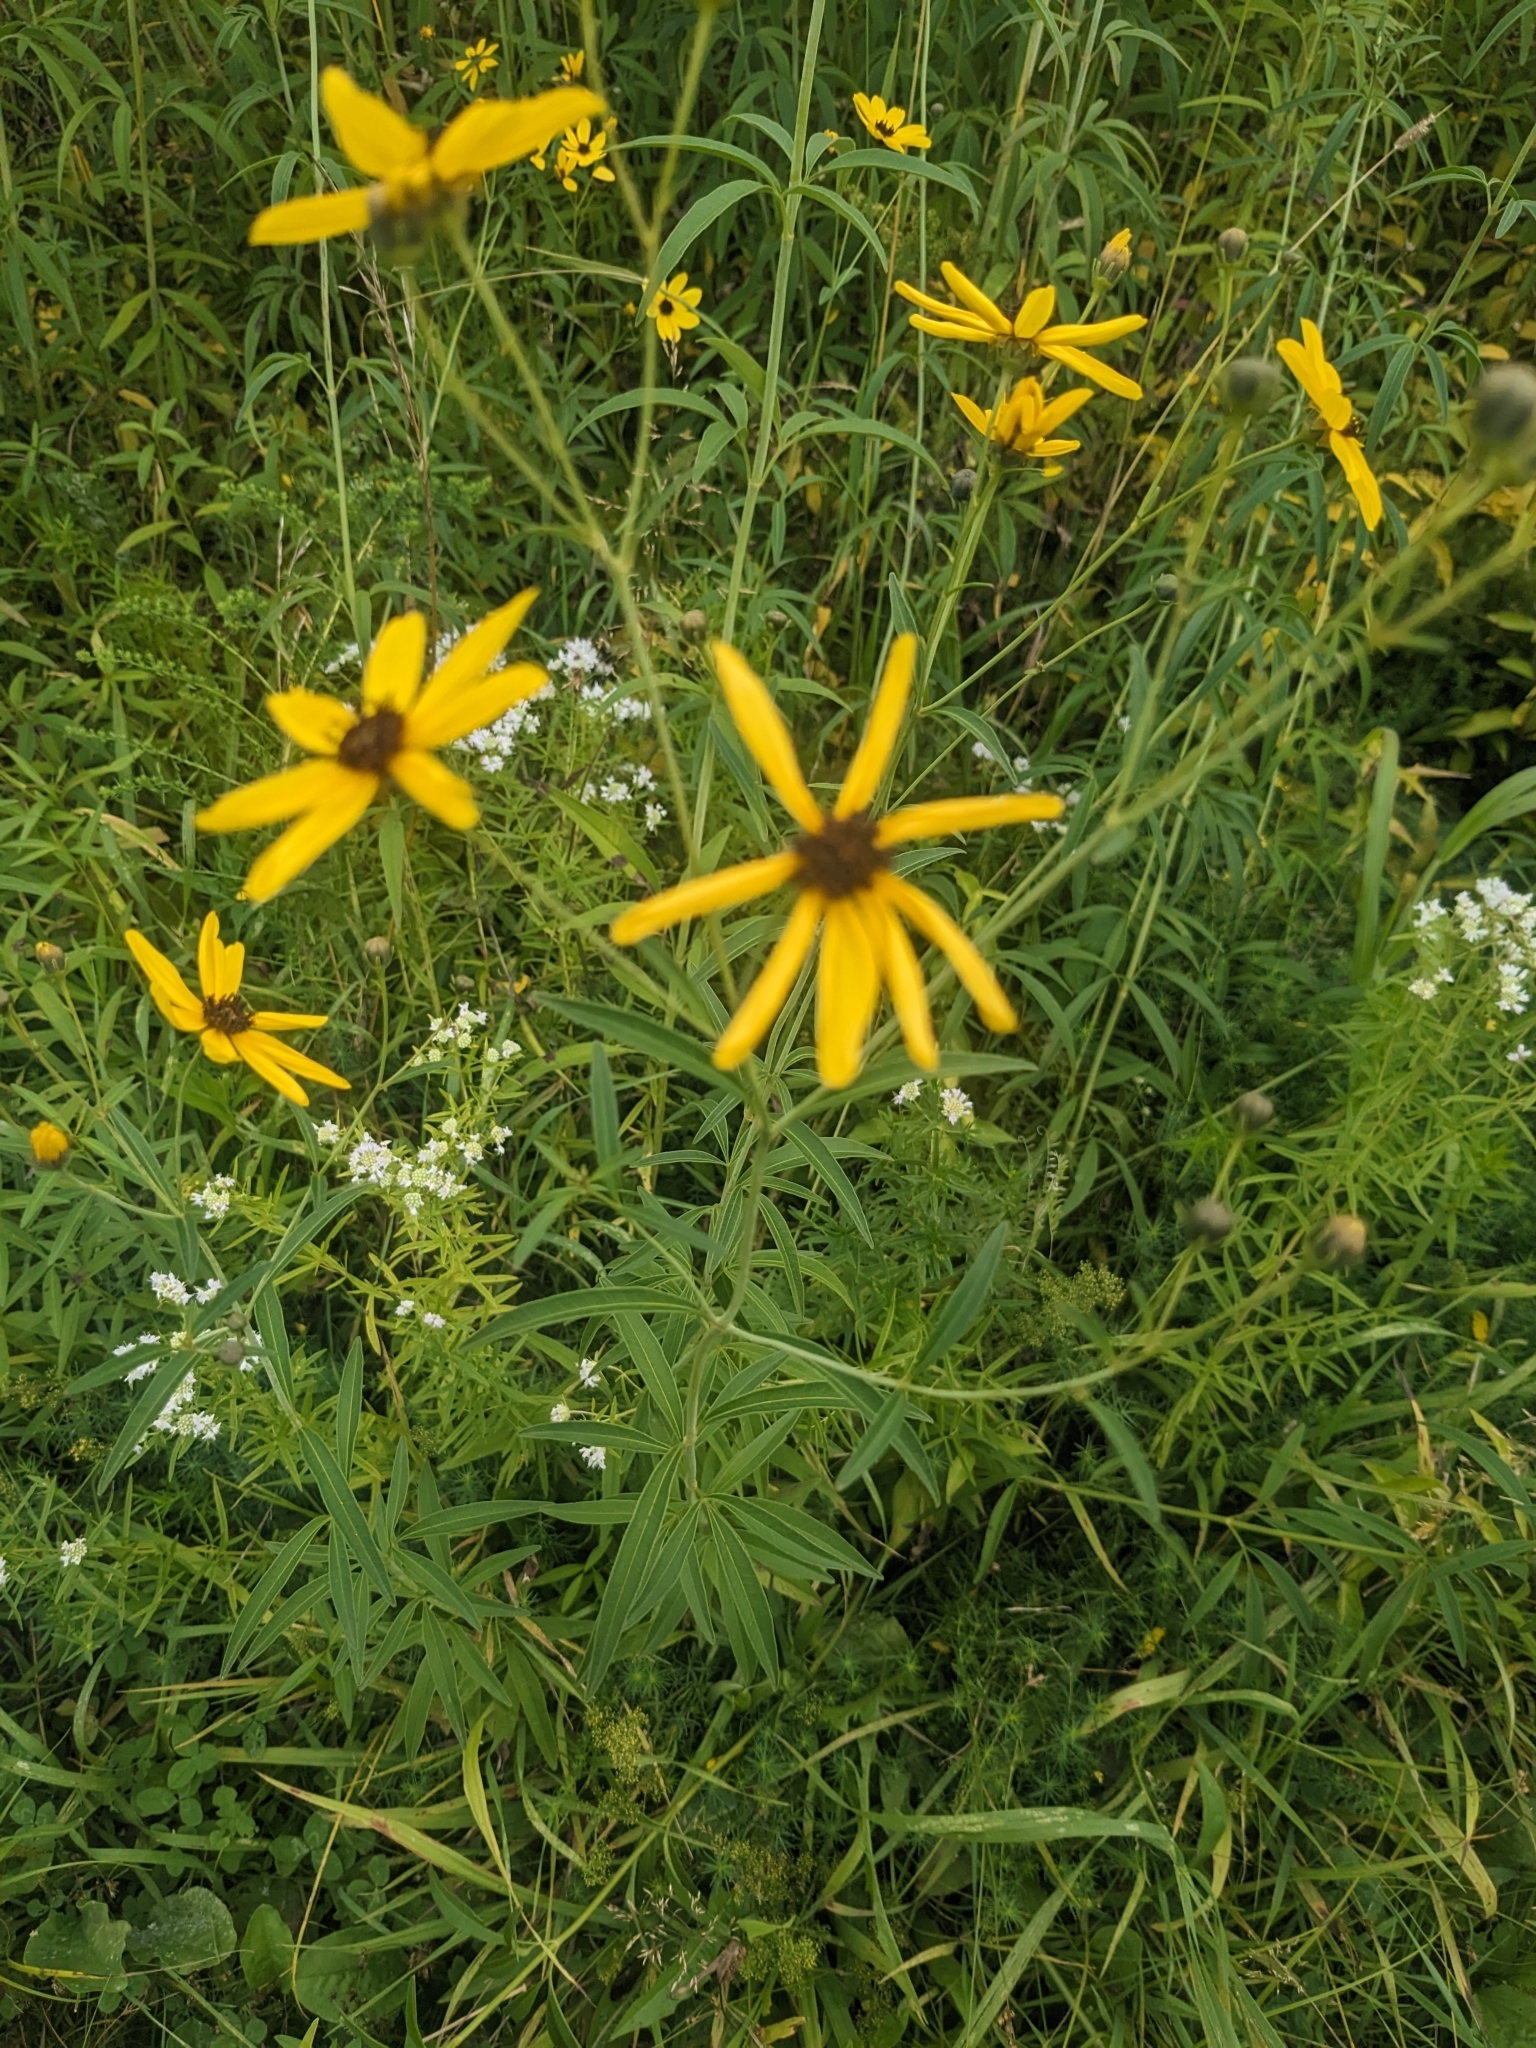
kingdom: Plantae
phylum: Tracheophyta
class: Magnoliopsida
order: Asterales
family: Asteraceae
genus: Coreopsis
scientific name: Coreopsis tripteris
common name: Tall coreopsis
